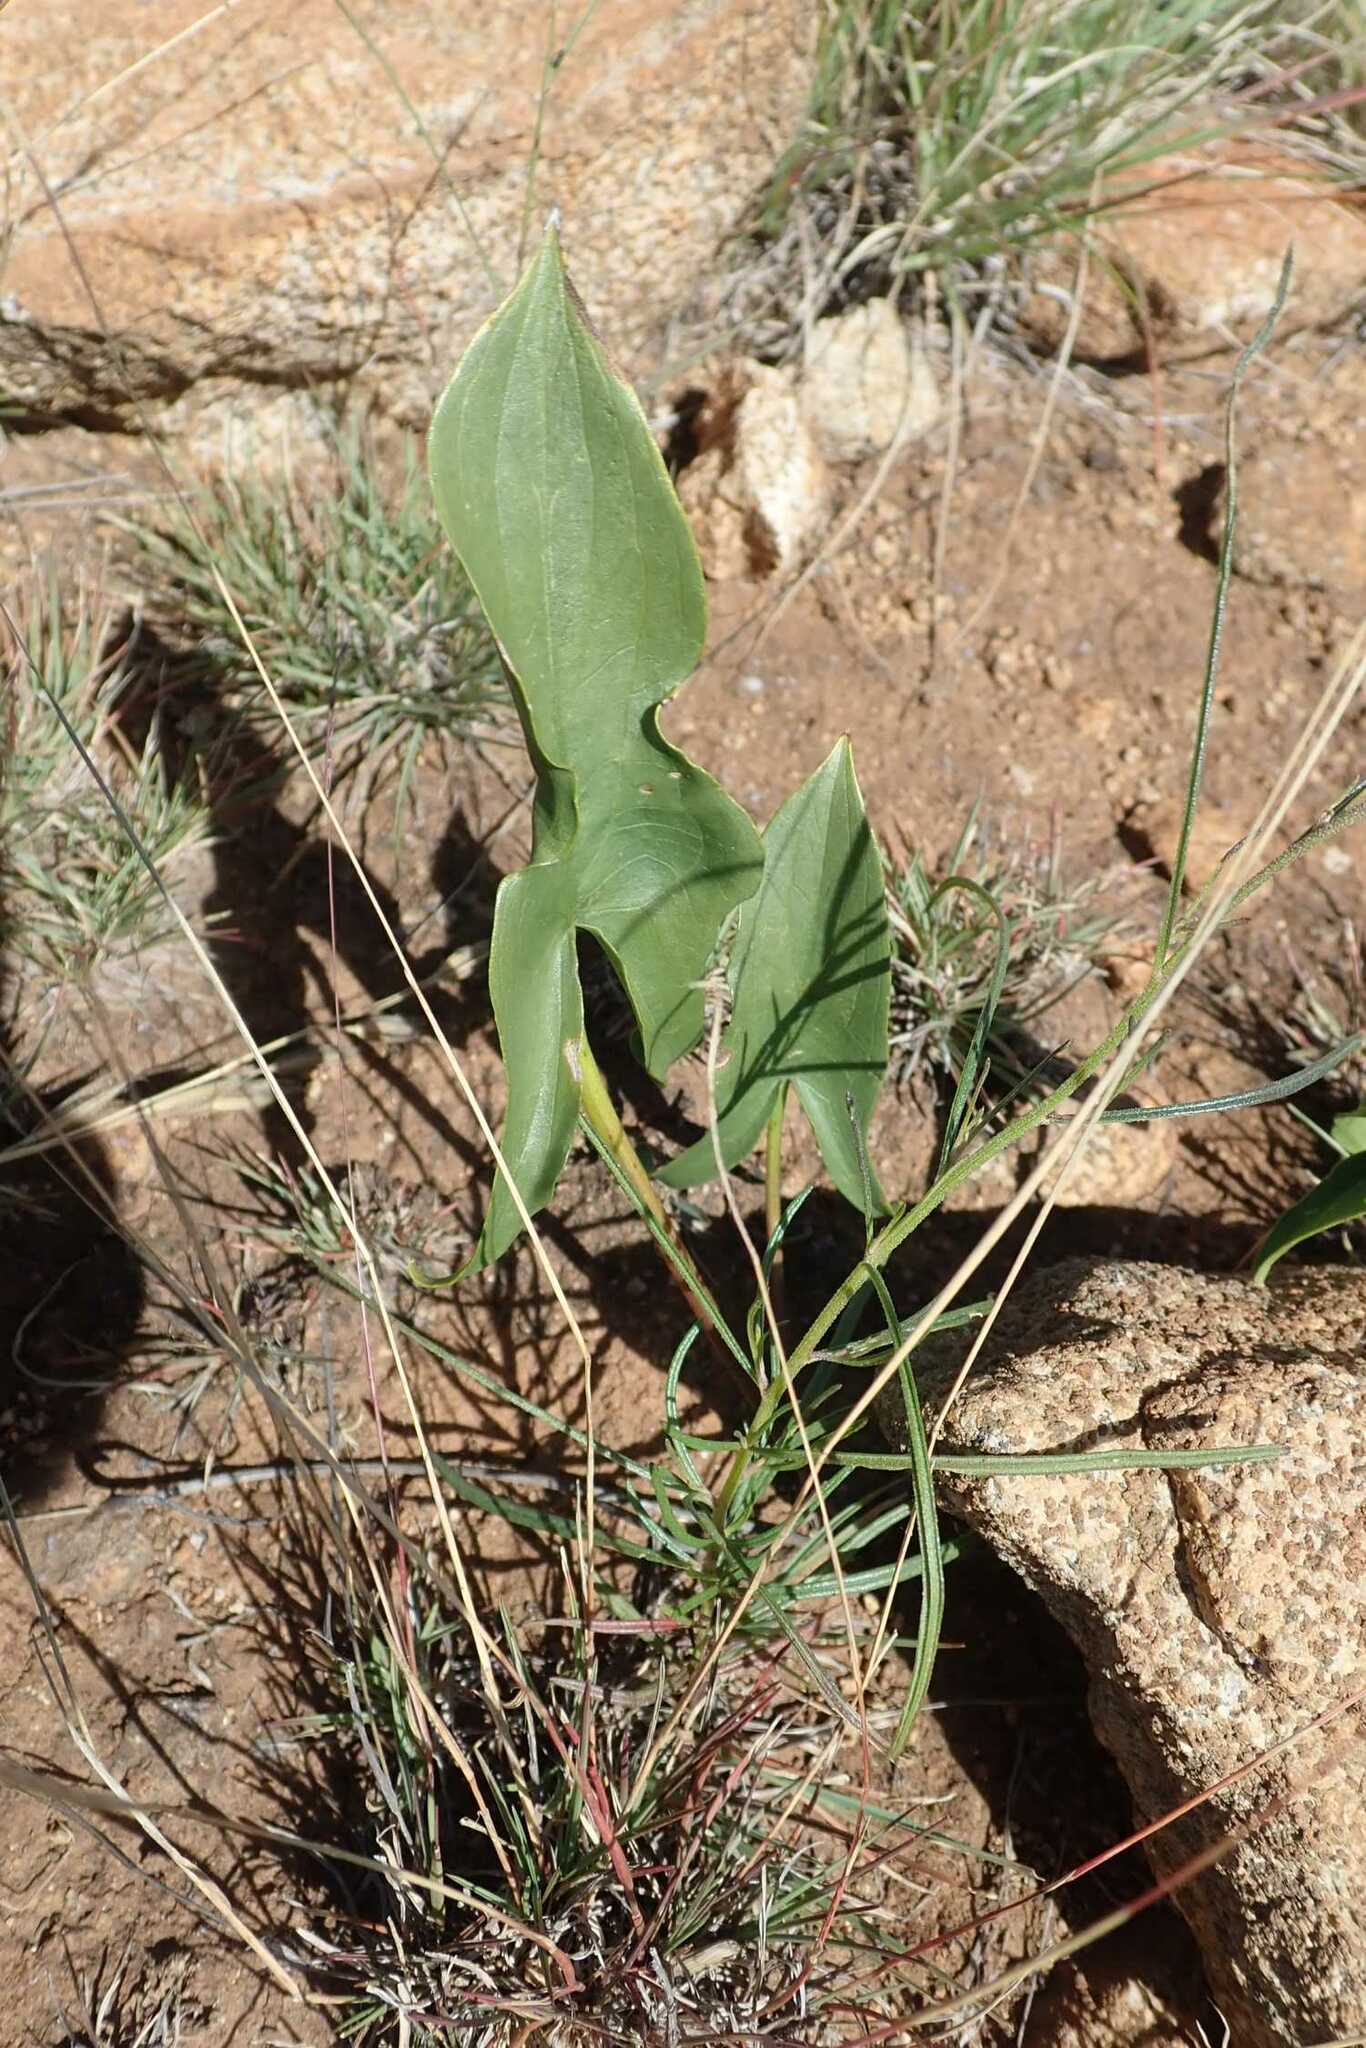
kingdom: Plantae
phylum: Tracheophyta
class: Liliopsida
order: Alismatales
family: Araceae
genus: Stylochaeton
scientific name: Stylochaeton natalensis
